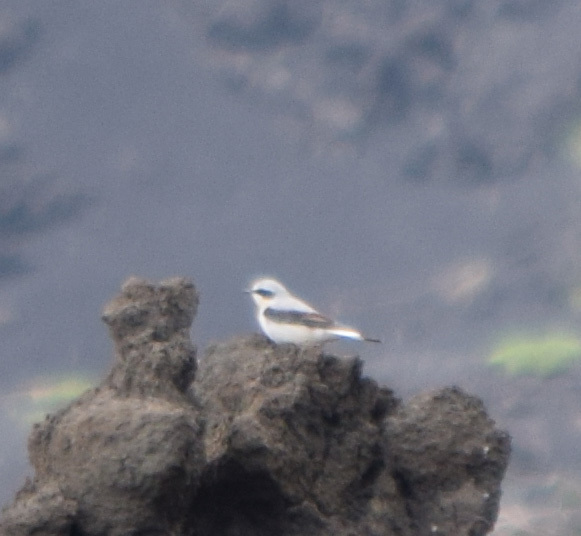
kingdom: Animalia
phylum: Chordata
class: Aves
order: Passeriformes
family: Muscicapidae
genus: Oenanthe
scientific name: Oenanthe oenanthe
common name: Northern wheatear
